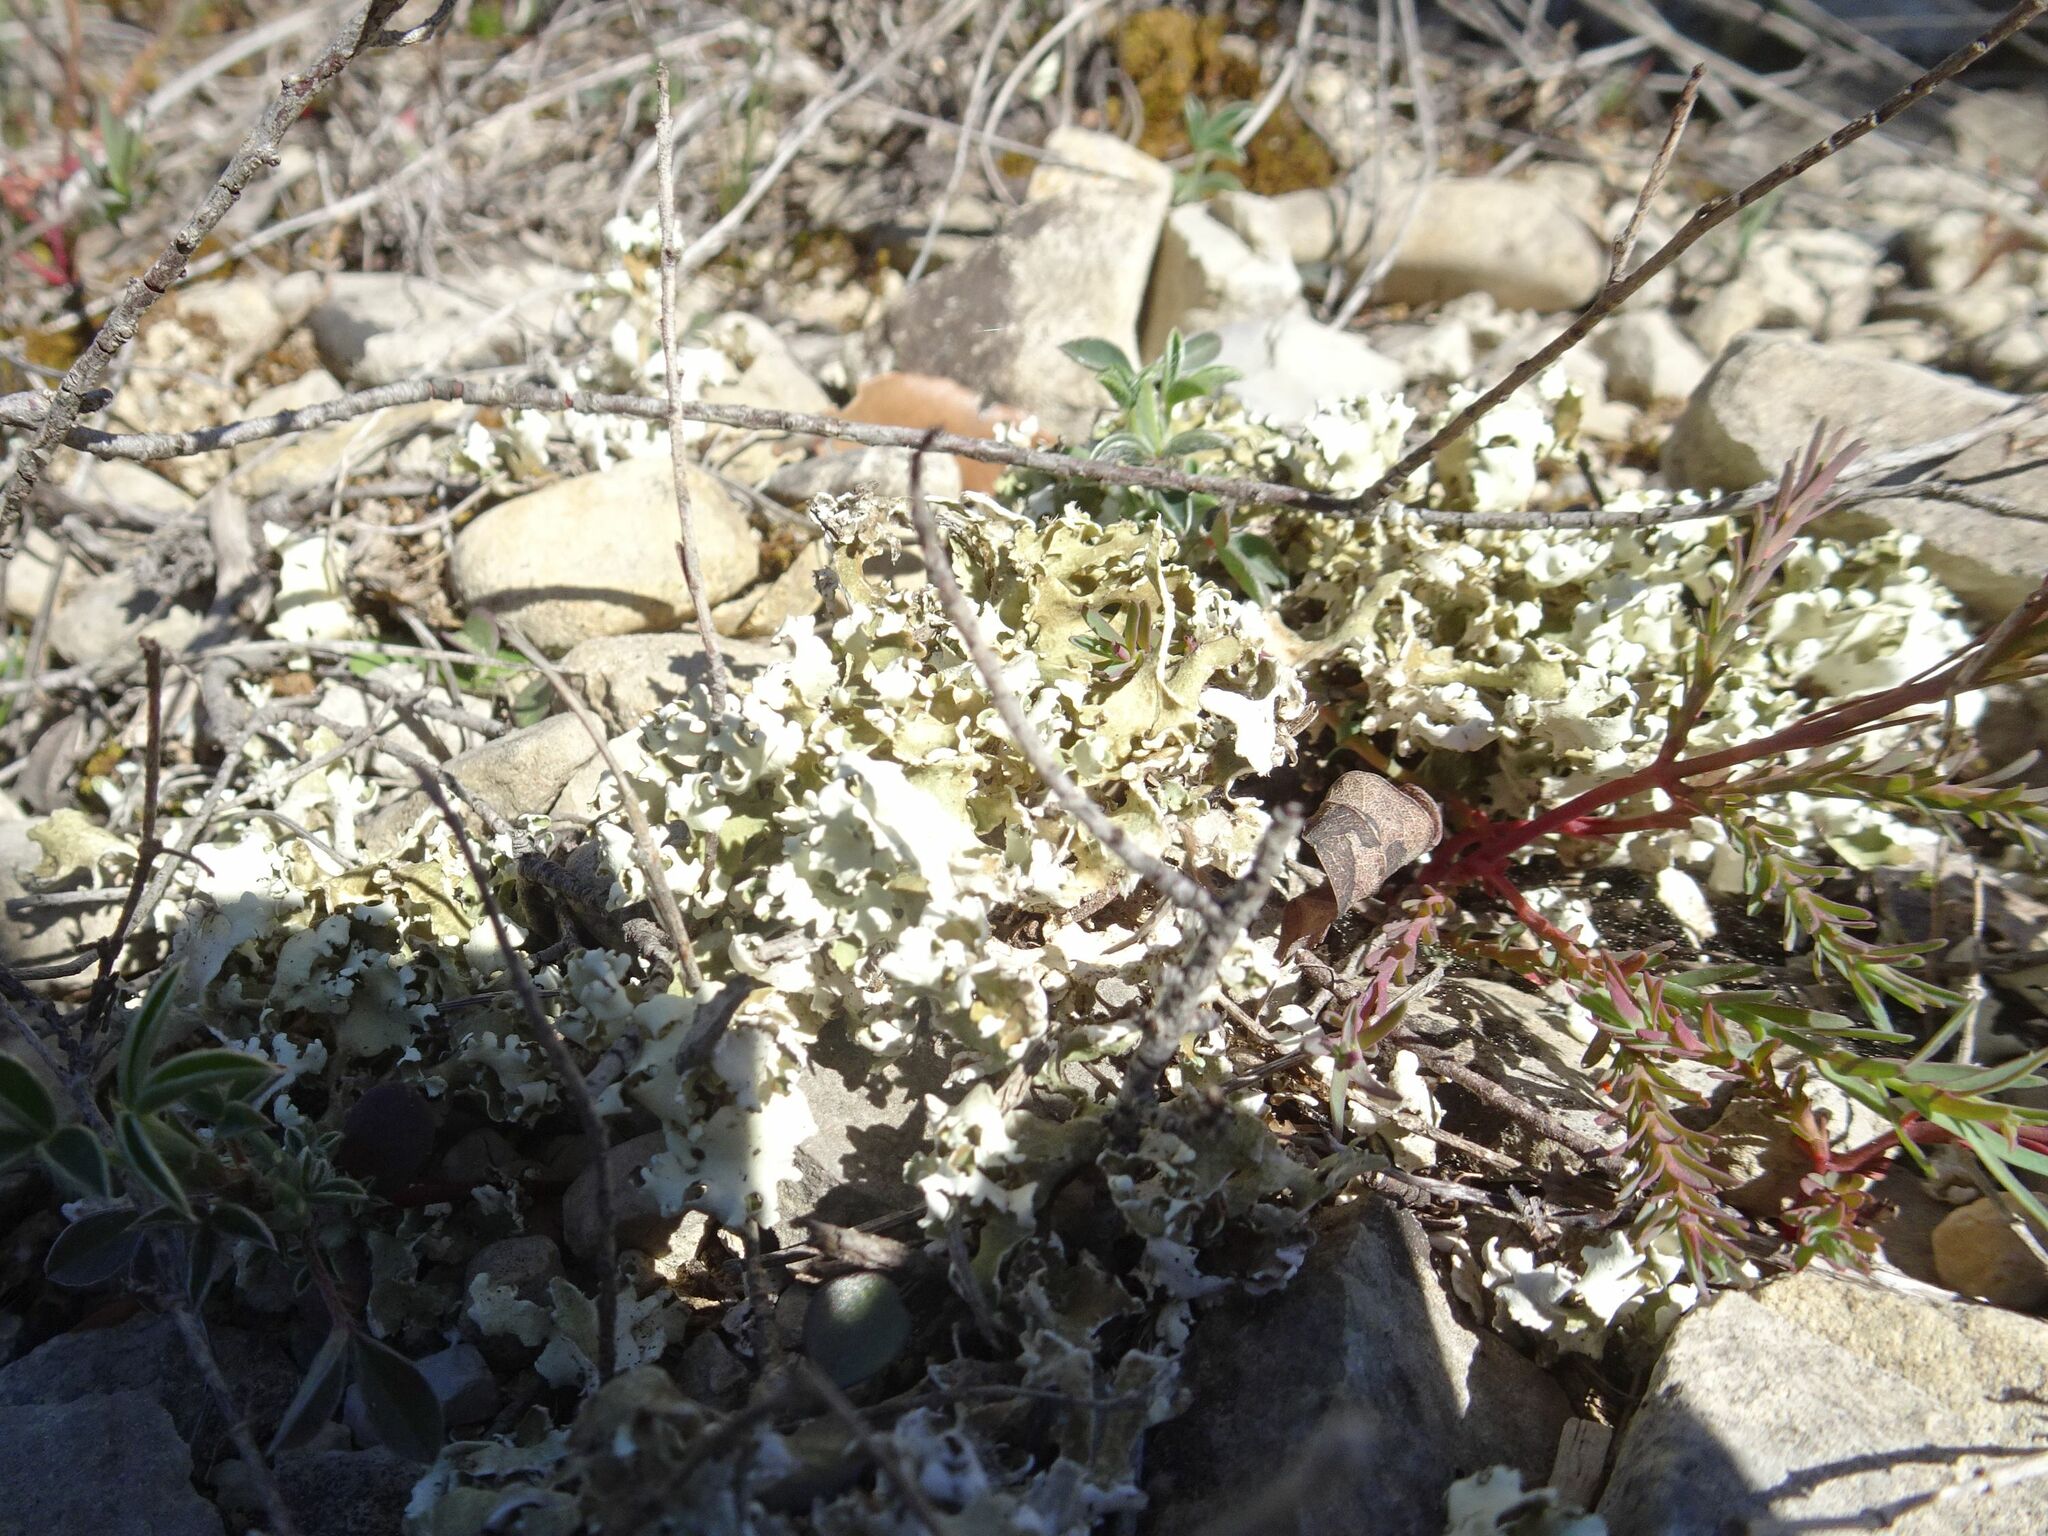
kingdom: Fungi
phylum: Ascomycota
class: Lecanoromycetes
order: Lecanorales
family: Cladoniaceae
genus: Cladonia
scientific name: Cladonia foliacea
